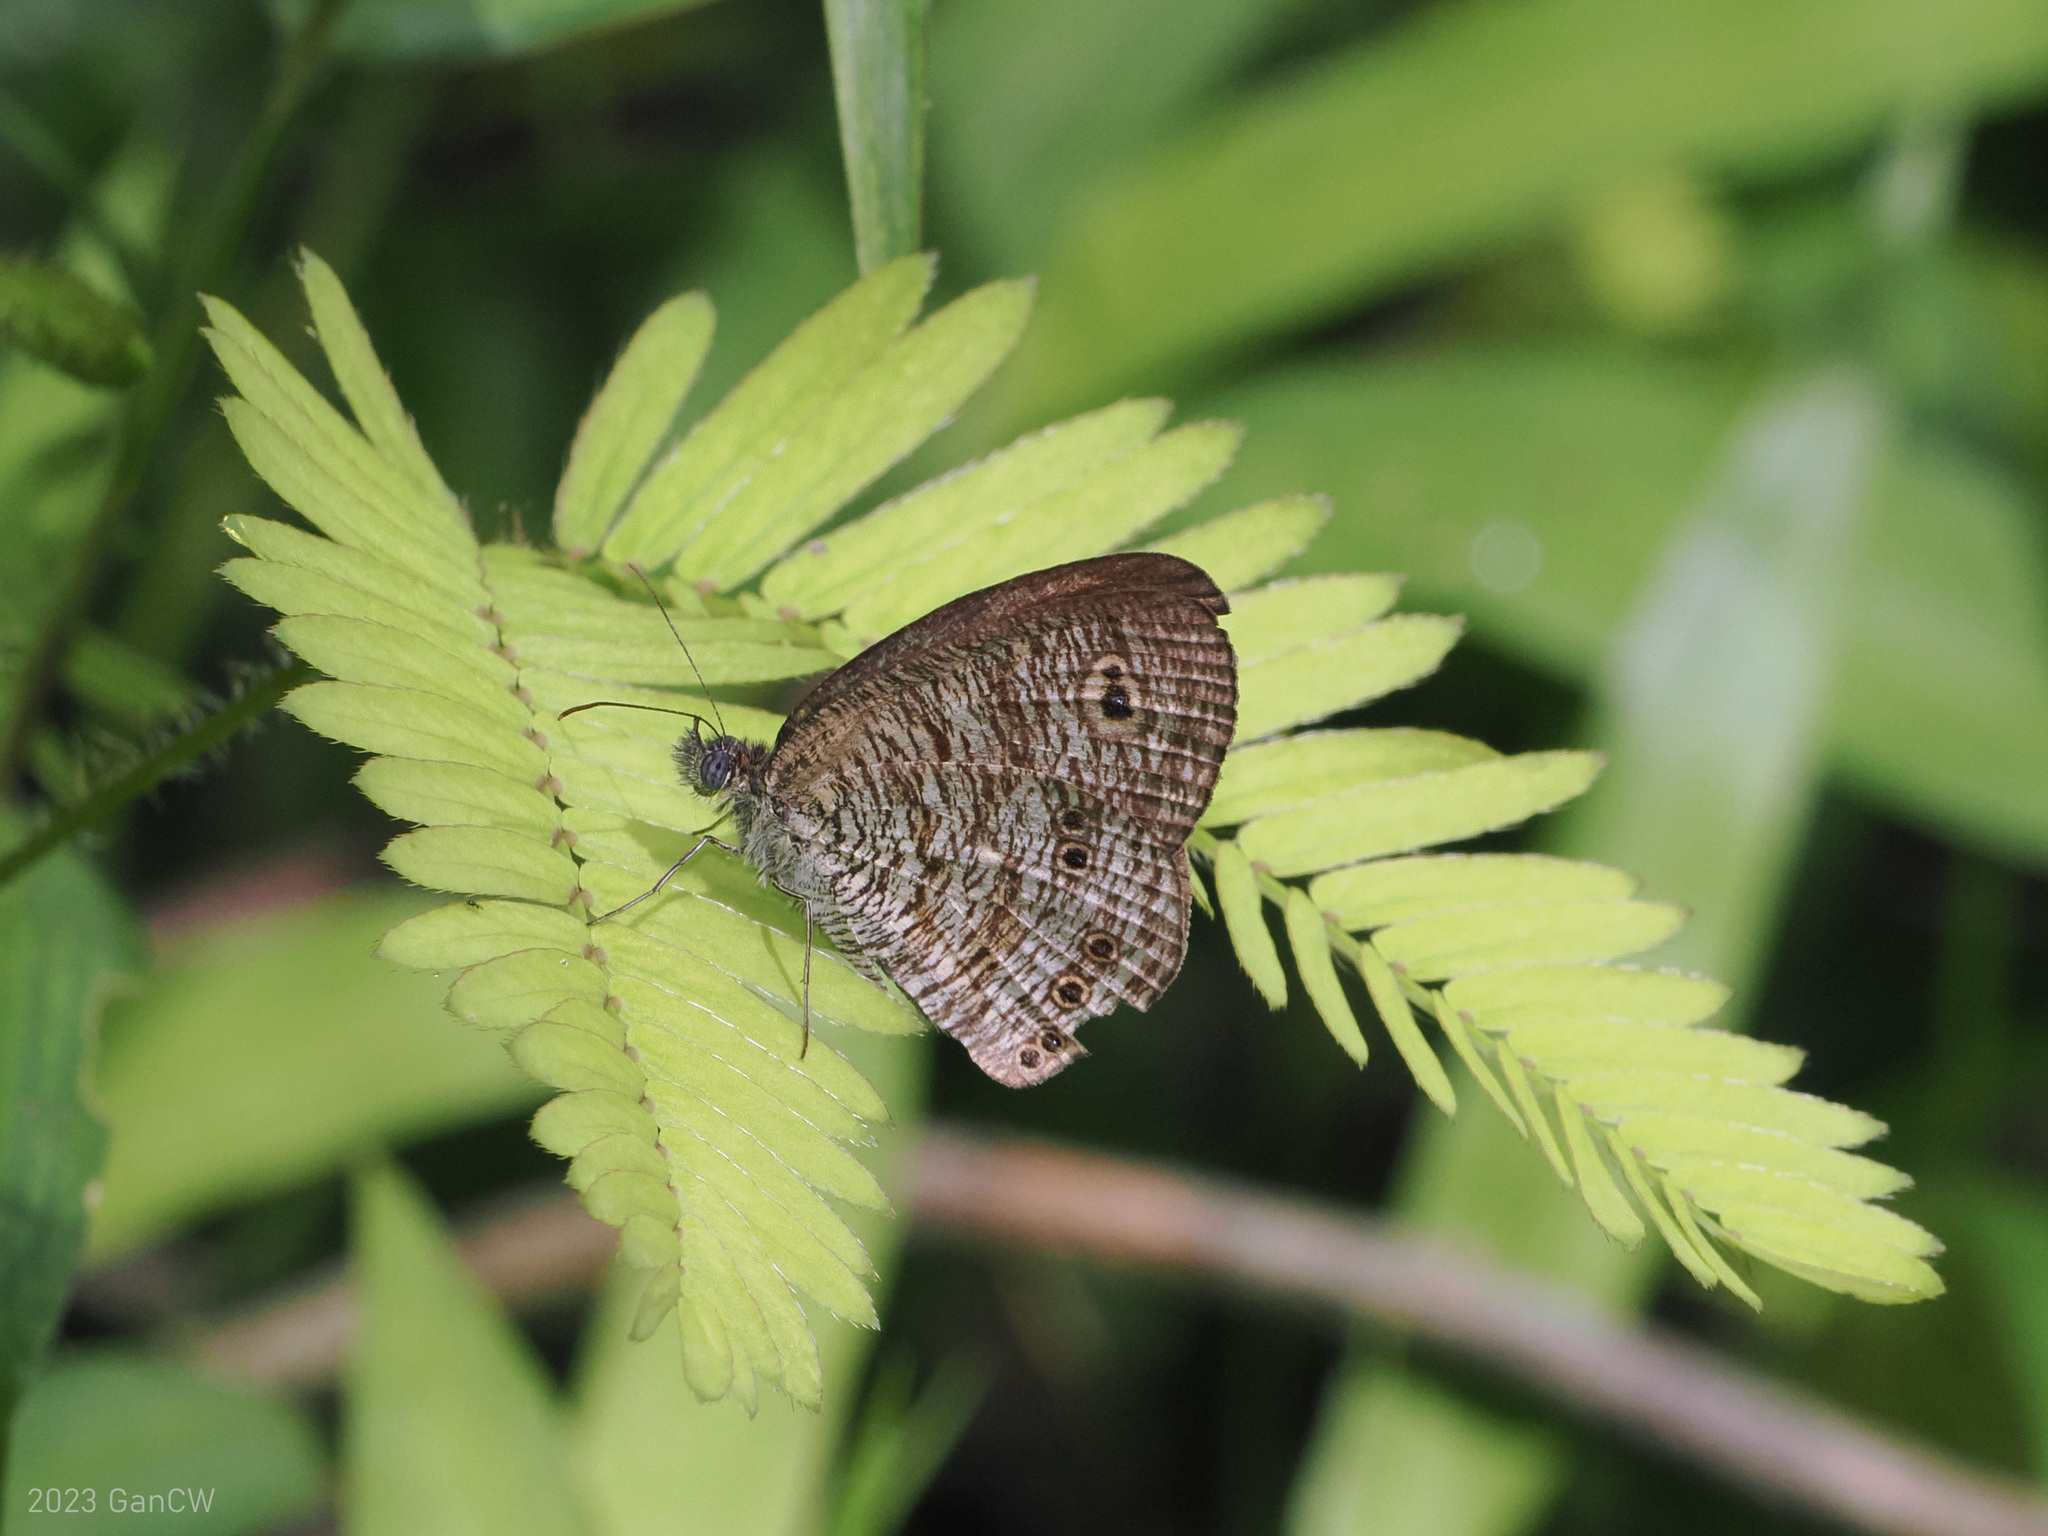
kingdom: Animalia
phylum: Arthropoda
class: Insecta
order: Lepidoptera
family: Nymphalidae
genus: Ypthima
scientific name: Ypthima nigricans
